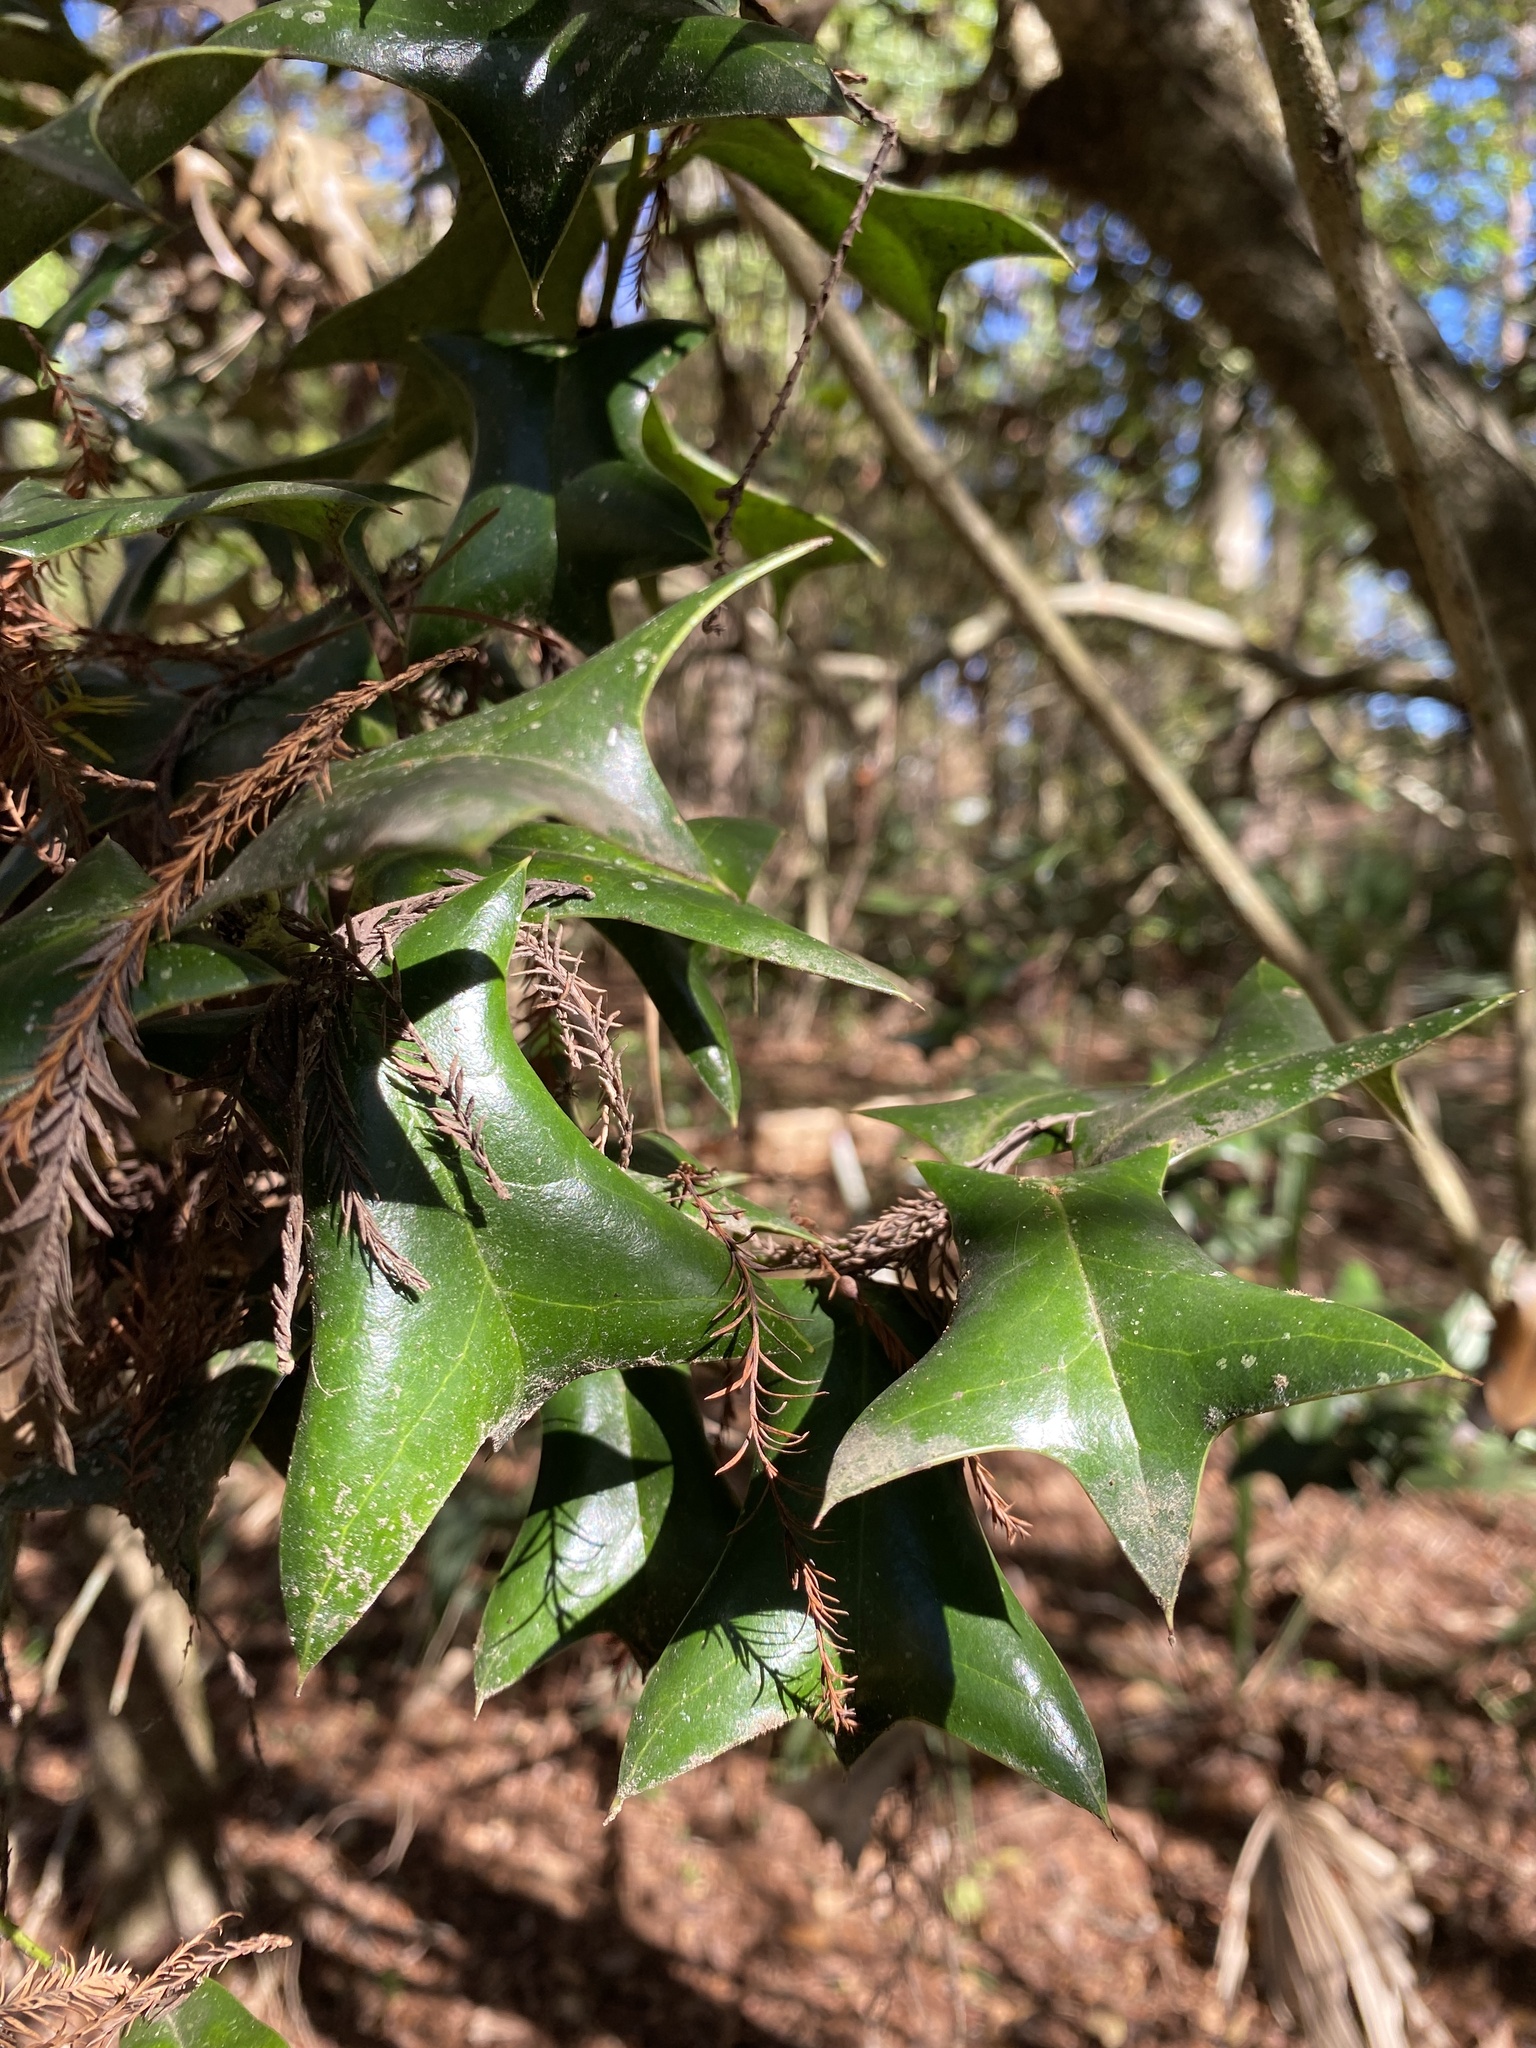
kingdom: Plantae
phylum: Tracheophyta
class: Magnoliopsida
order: Aquifoliales
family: Aquifoliaceae
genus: Ilex
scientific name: Ilex cornuta
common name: Chinese holly
